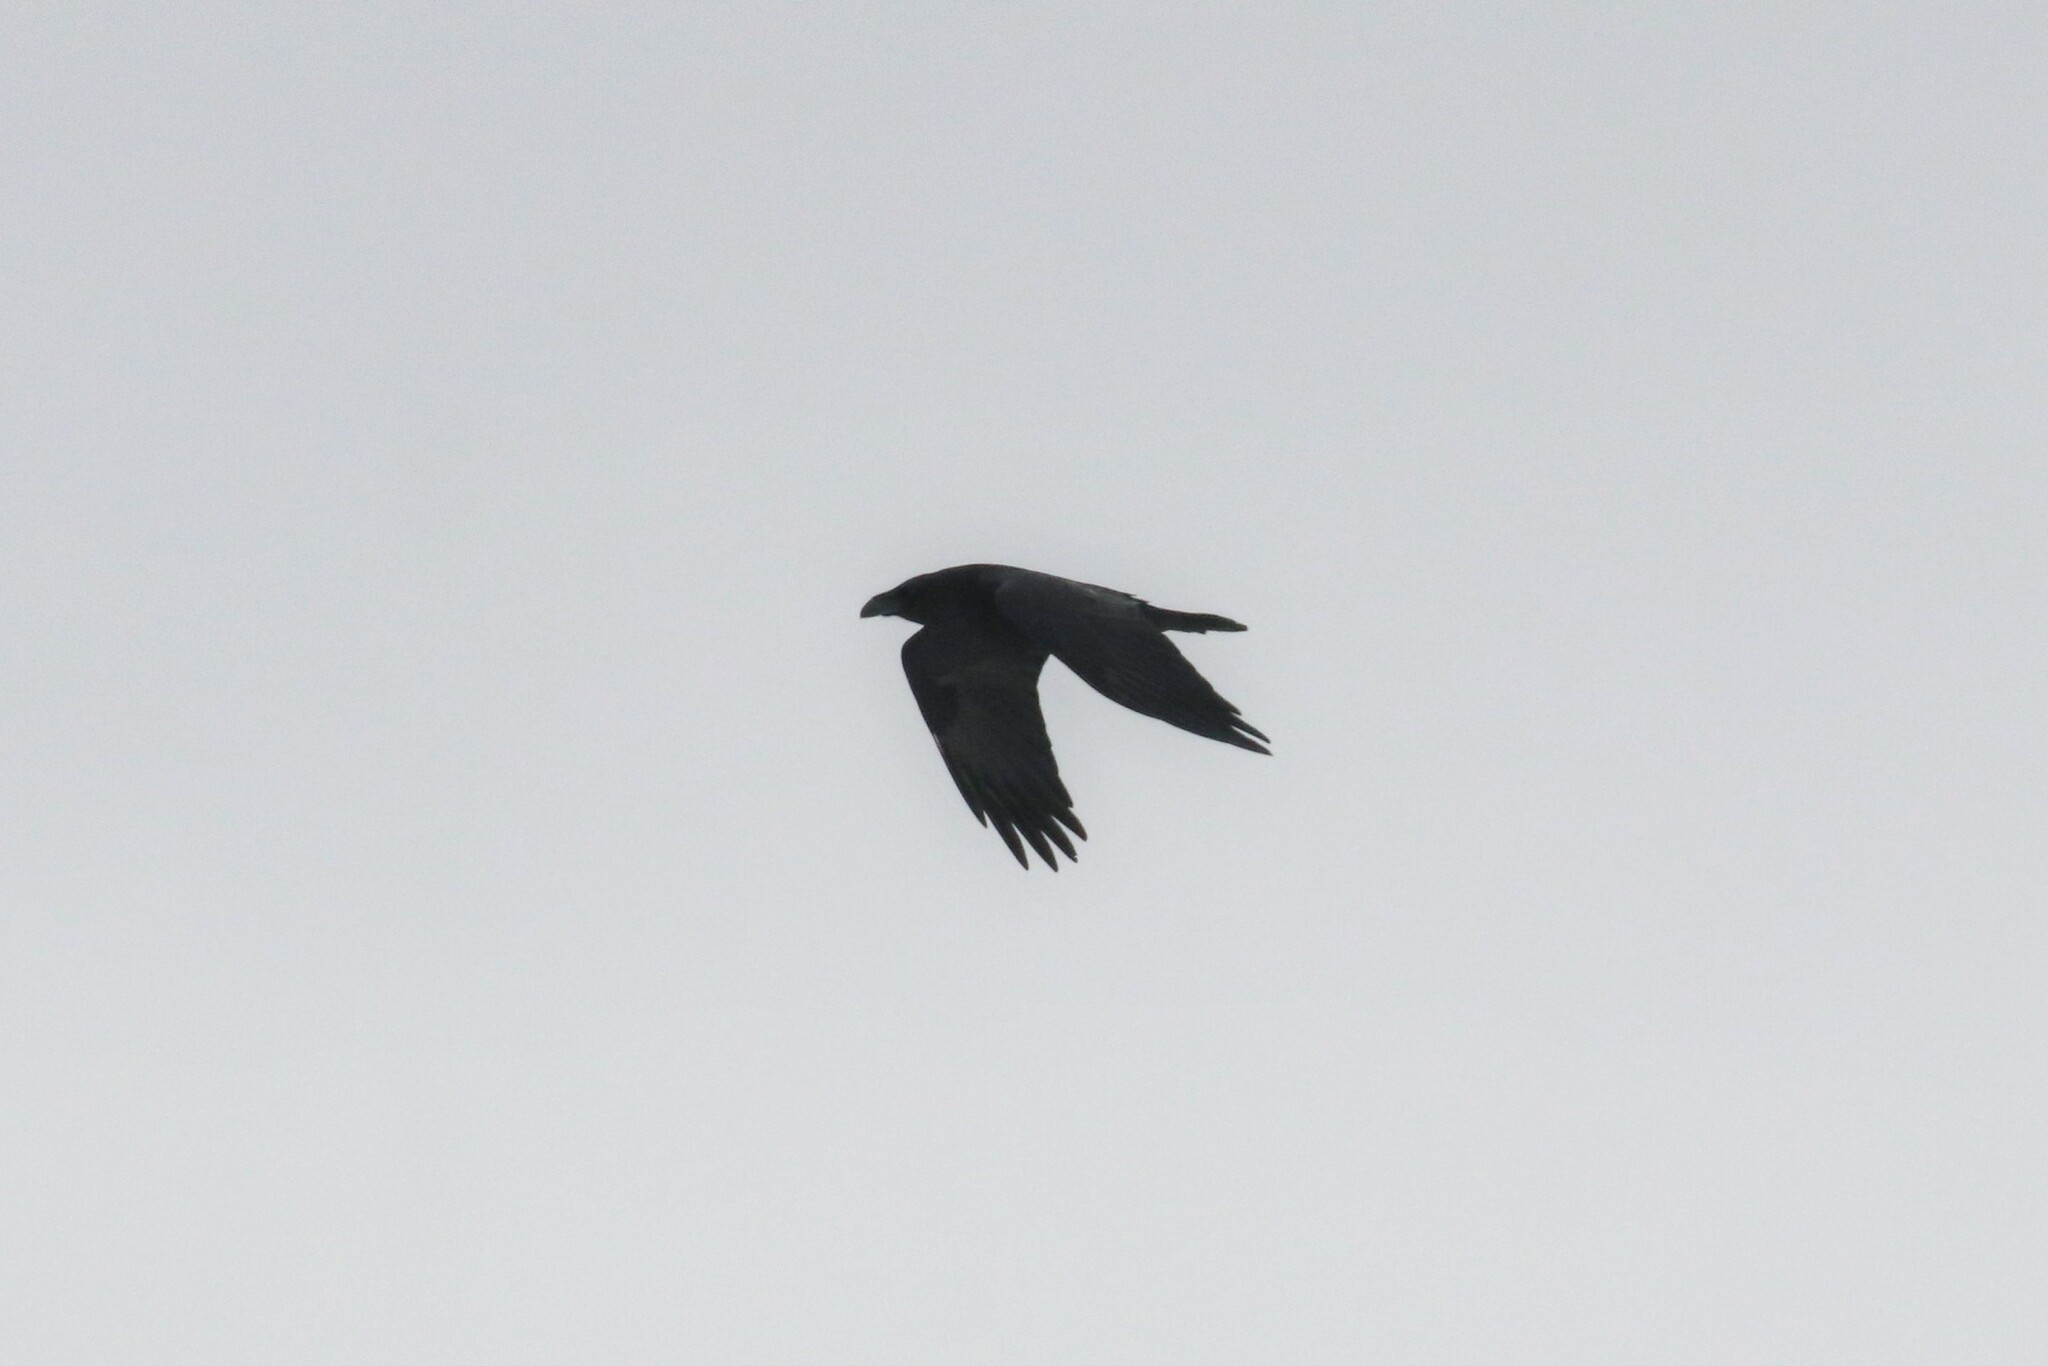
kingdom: Animalia
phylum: Chordata
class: Aves
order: Passeriformes
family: Corvidae
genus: Corvus
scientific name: Corvus corax
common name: Common raven
